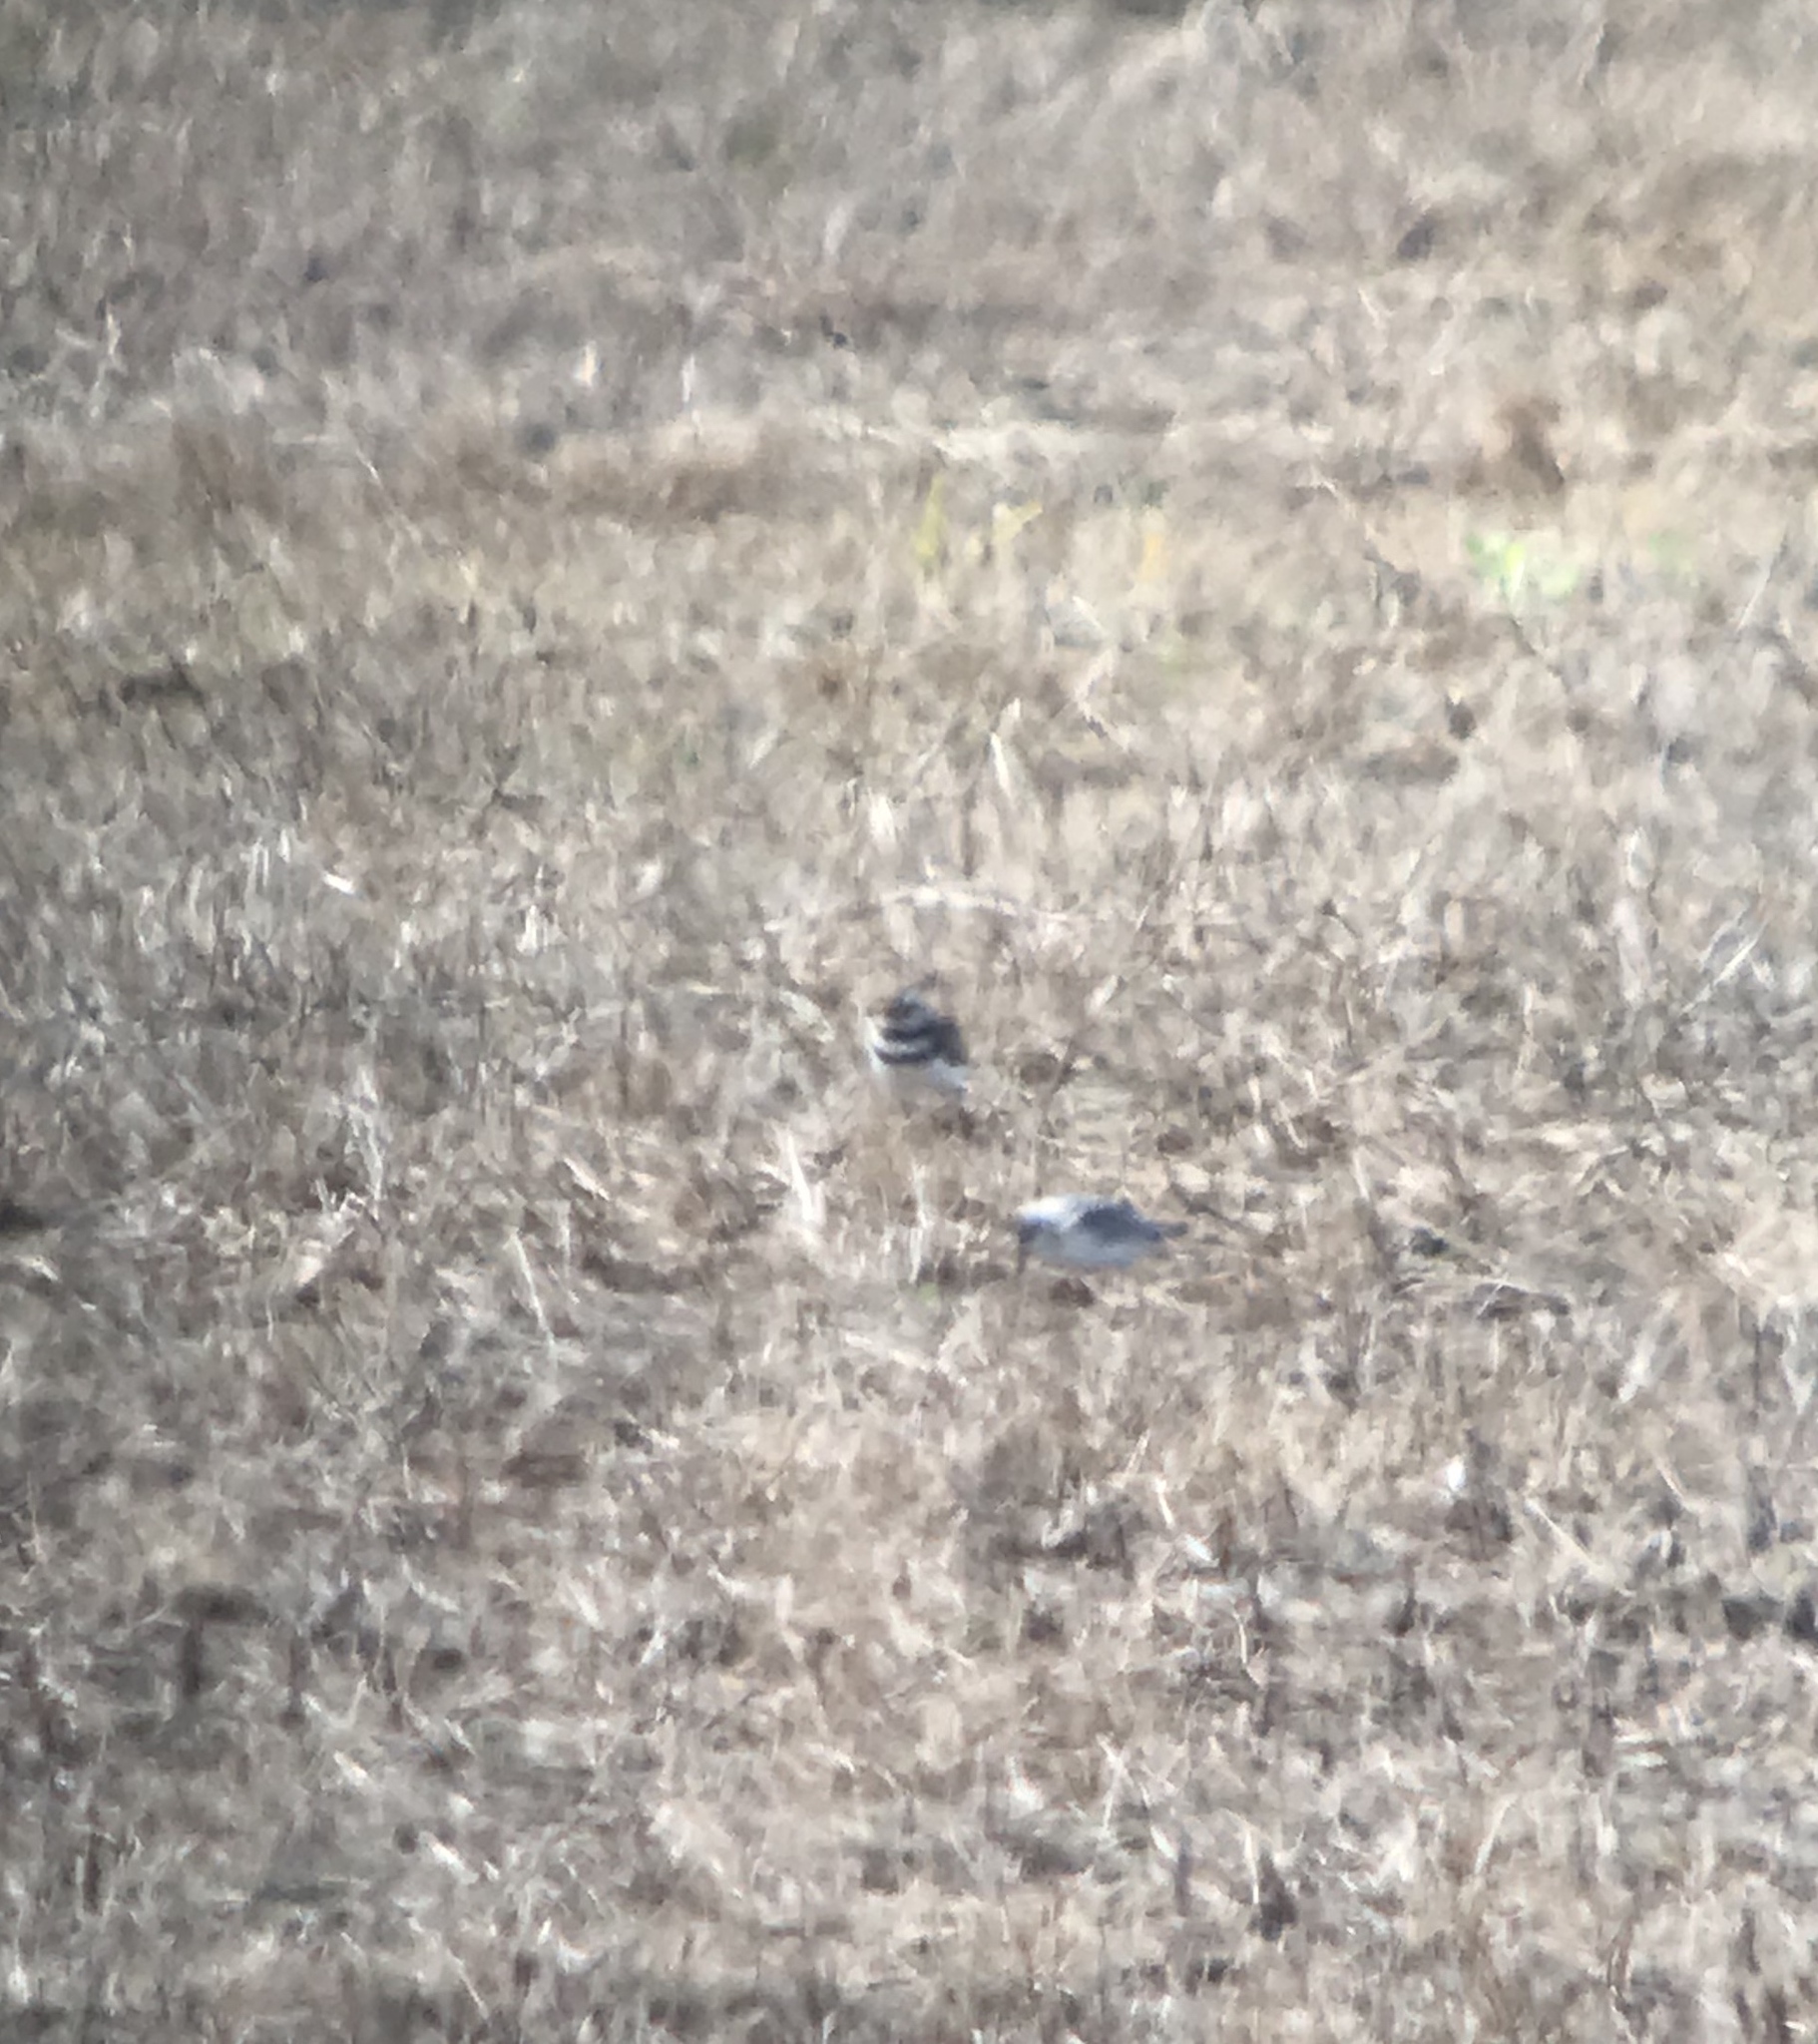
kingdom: Animalia
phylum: Chordata
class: Aves
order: Charadriiformes
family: Scolopacidae
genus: Calidris
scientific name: Calidris alba
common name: Sanderling
